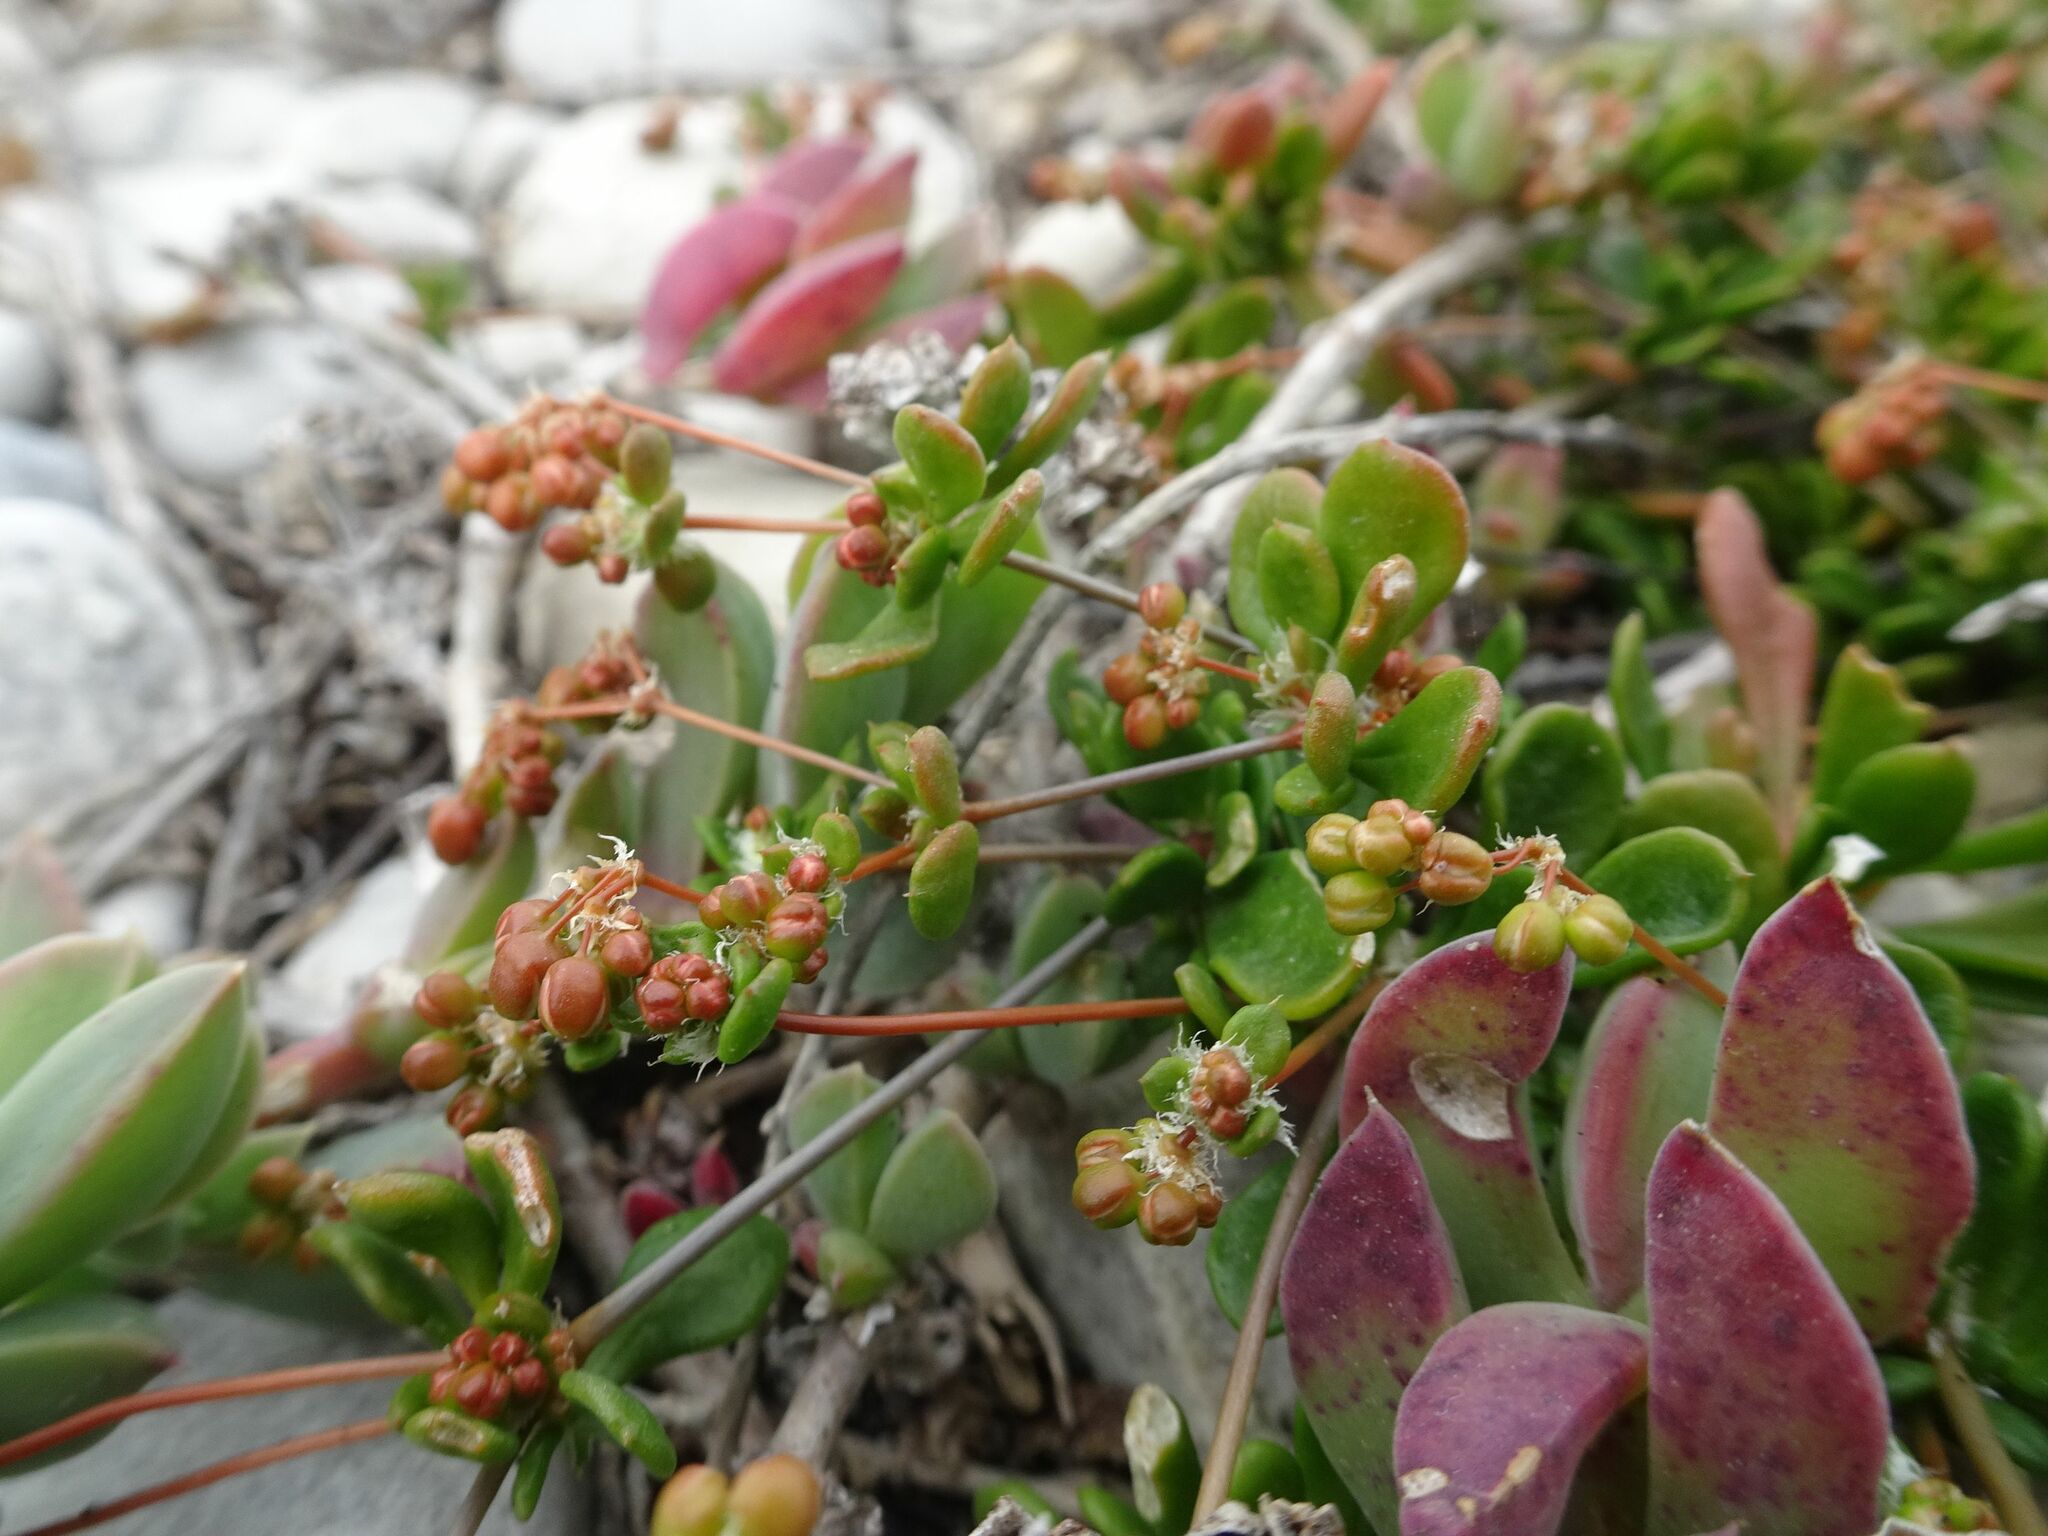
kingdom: Plantae
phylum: Tracheophyta
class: Magnoliopsida
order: Caryophyllales
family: Molluginaceae
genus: Pharnaceum
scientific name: Pharnaceum cordifolium
